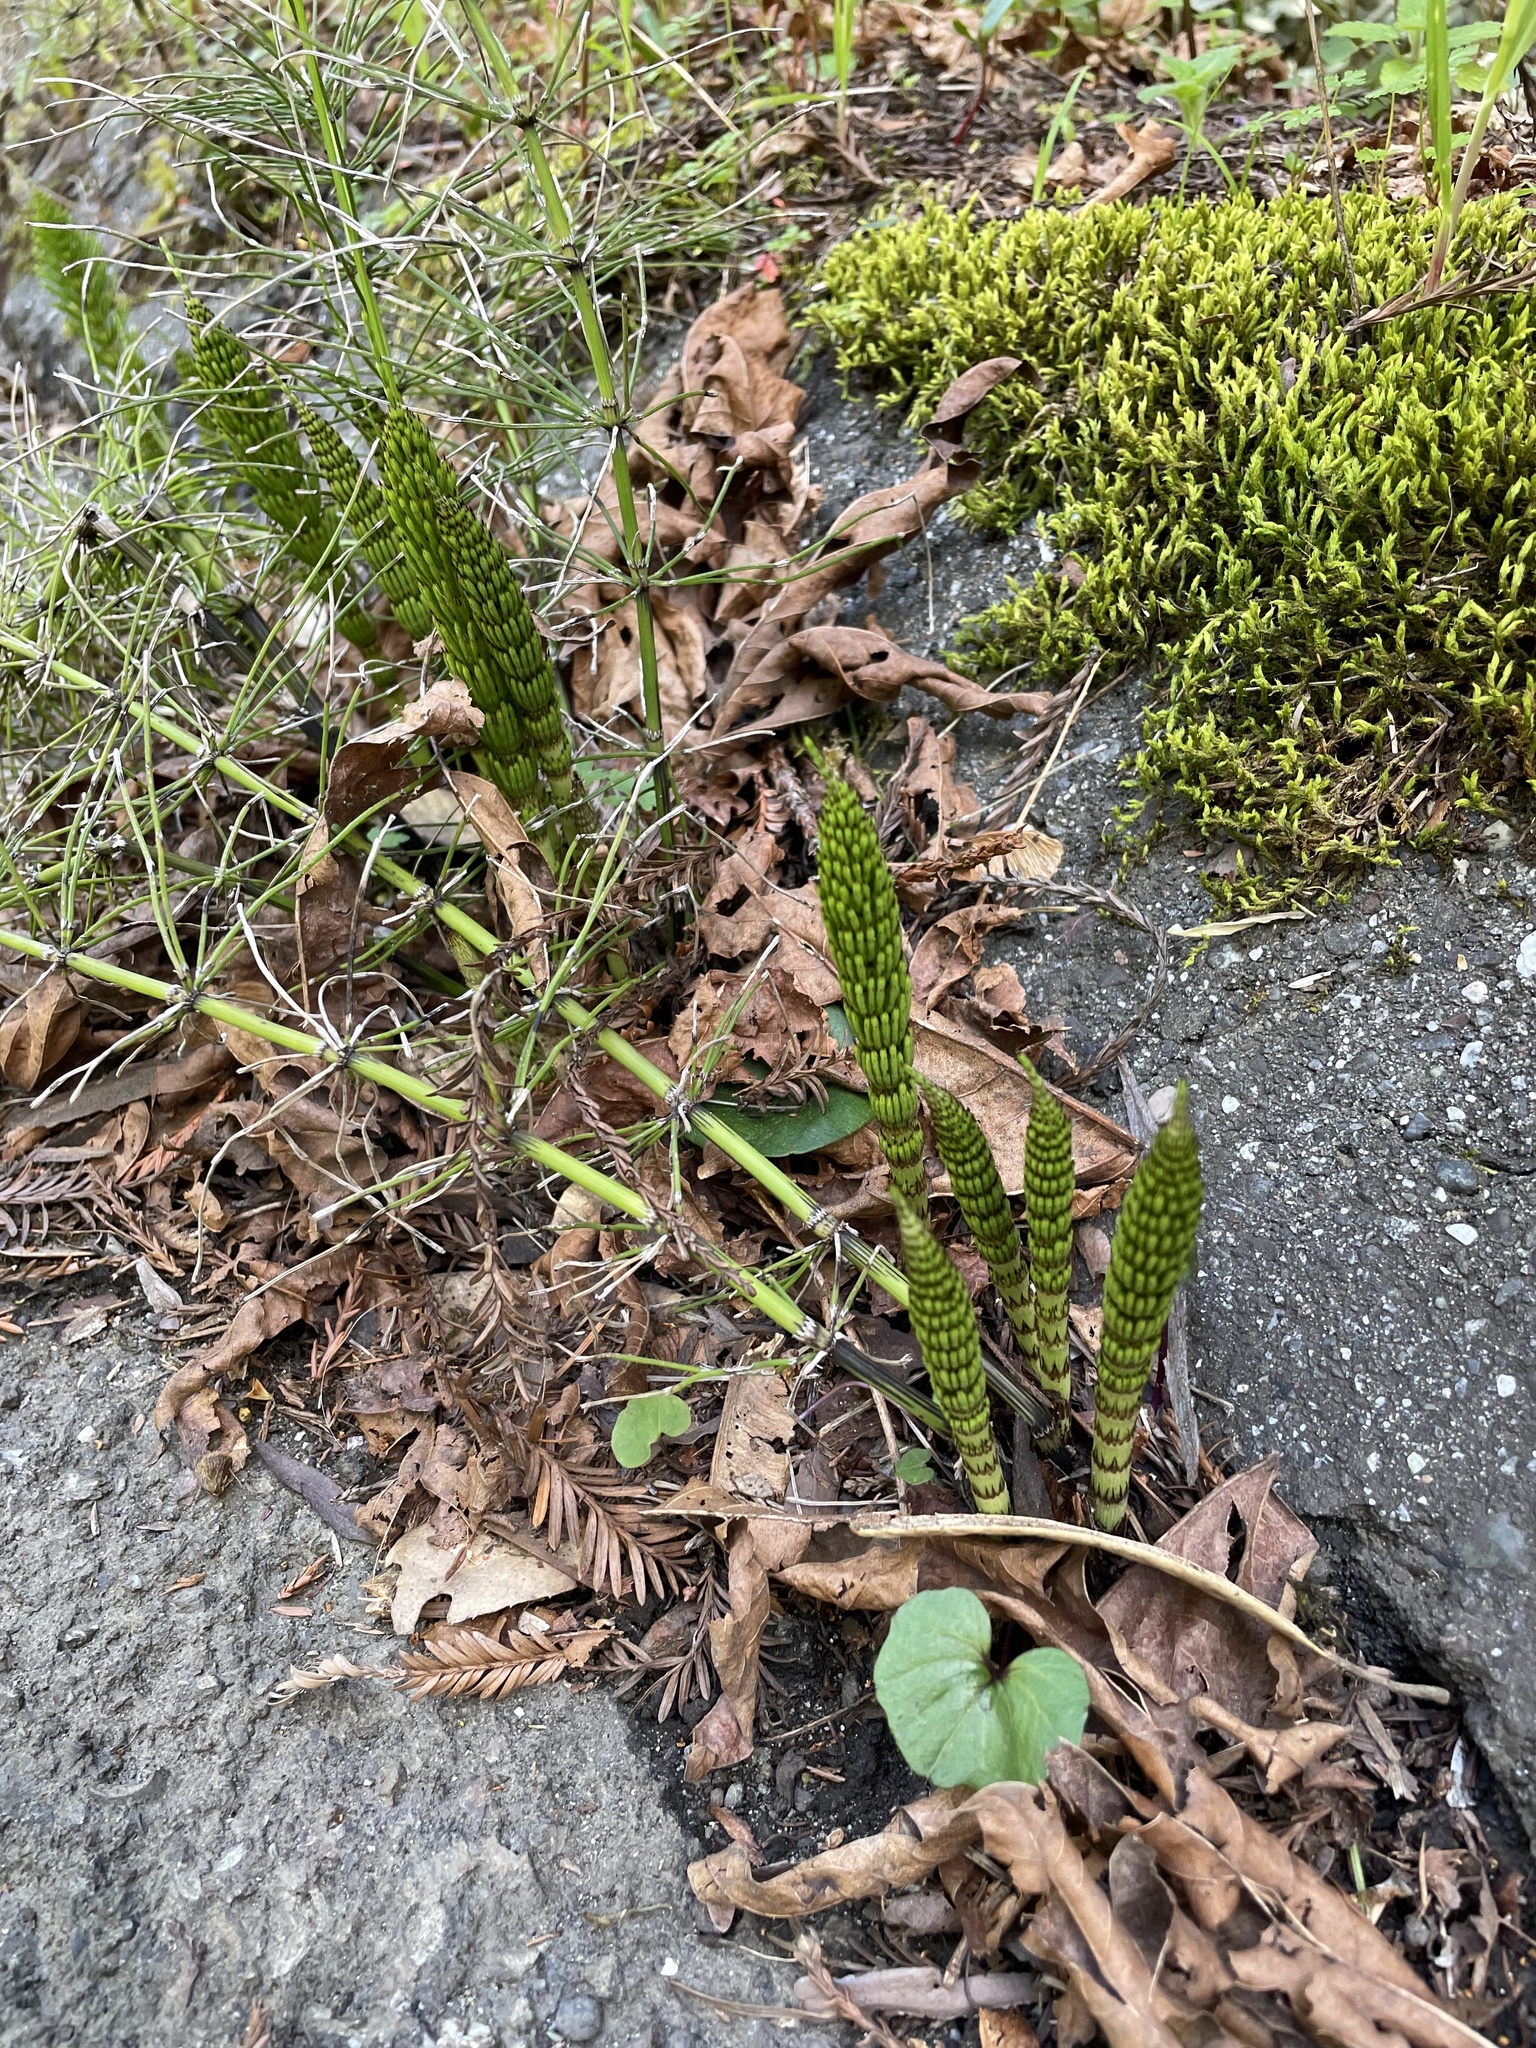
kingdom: Plantae
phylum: Tracheophyta
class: Polypodiopsida
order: Equisetales
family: Equisetaceae
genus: Equisetum
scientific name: Equisetum braunii
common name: Braun's horsetail
